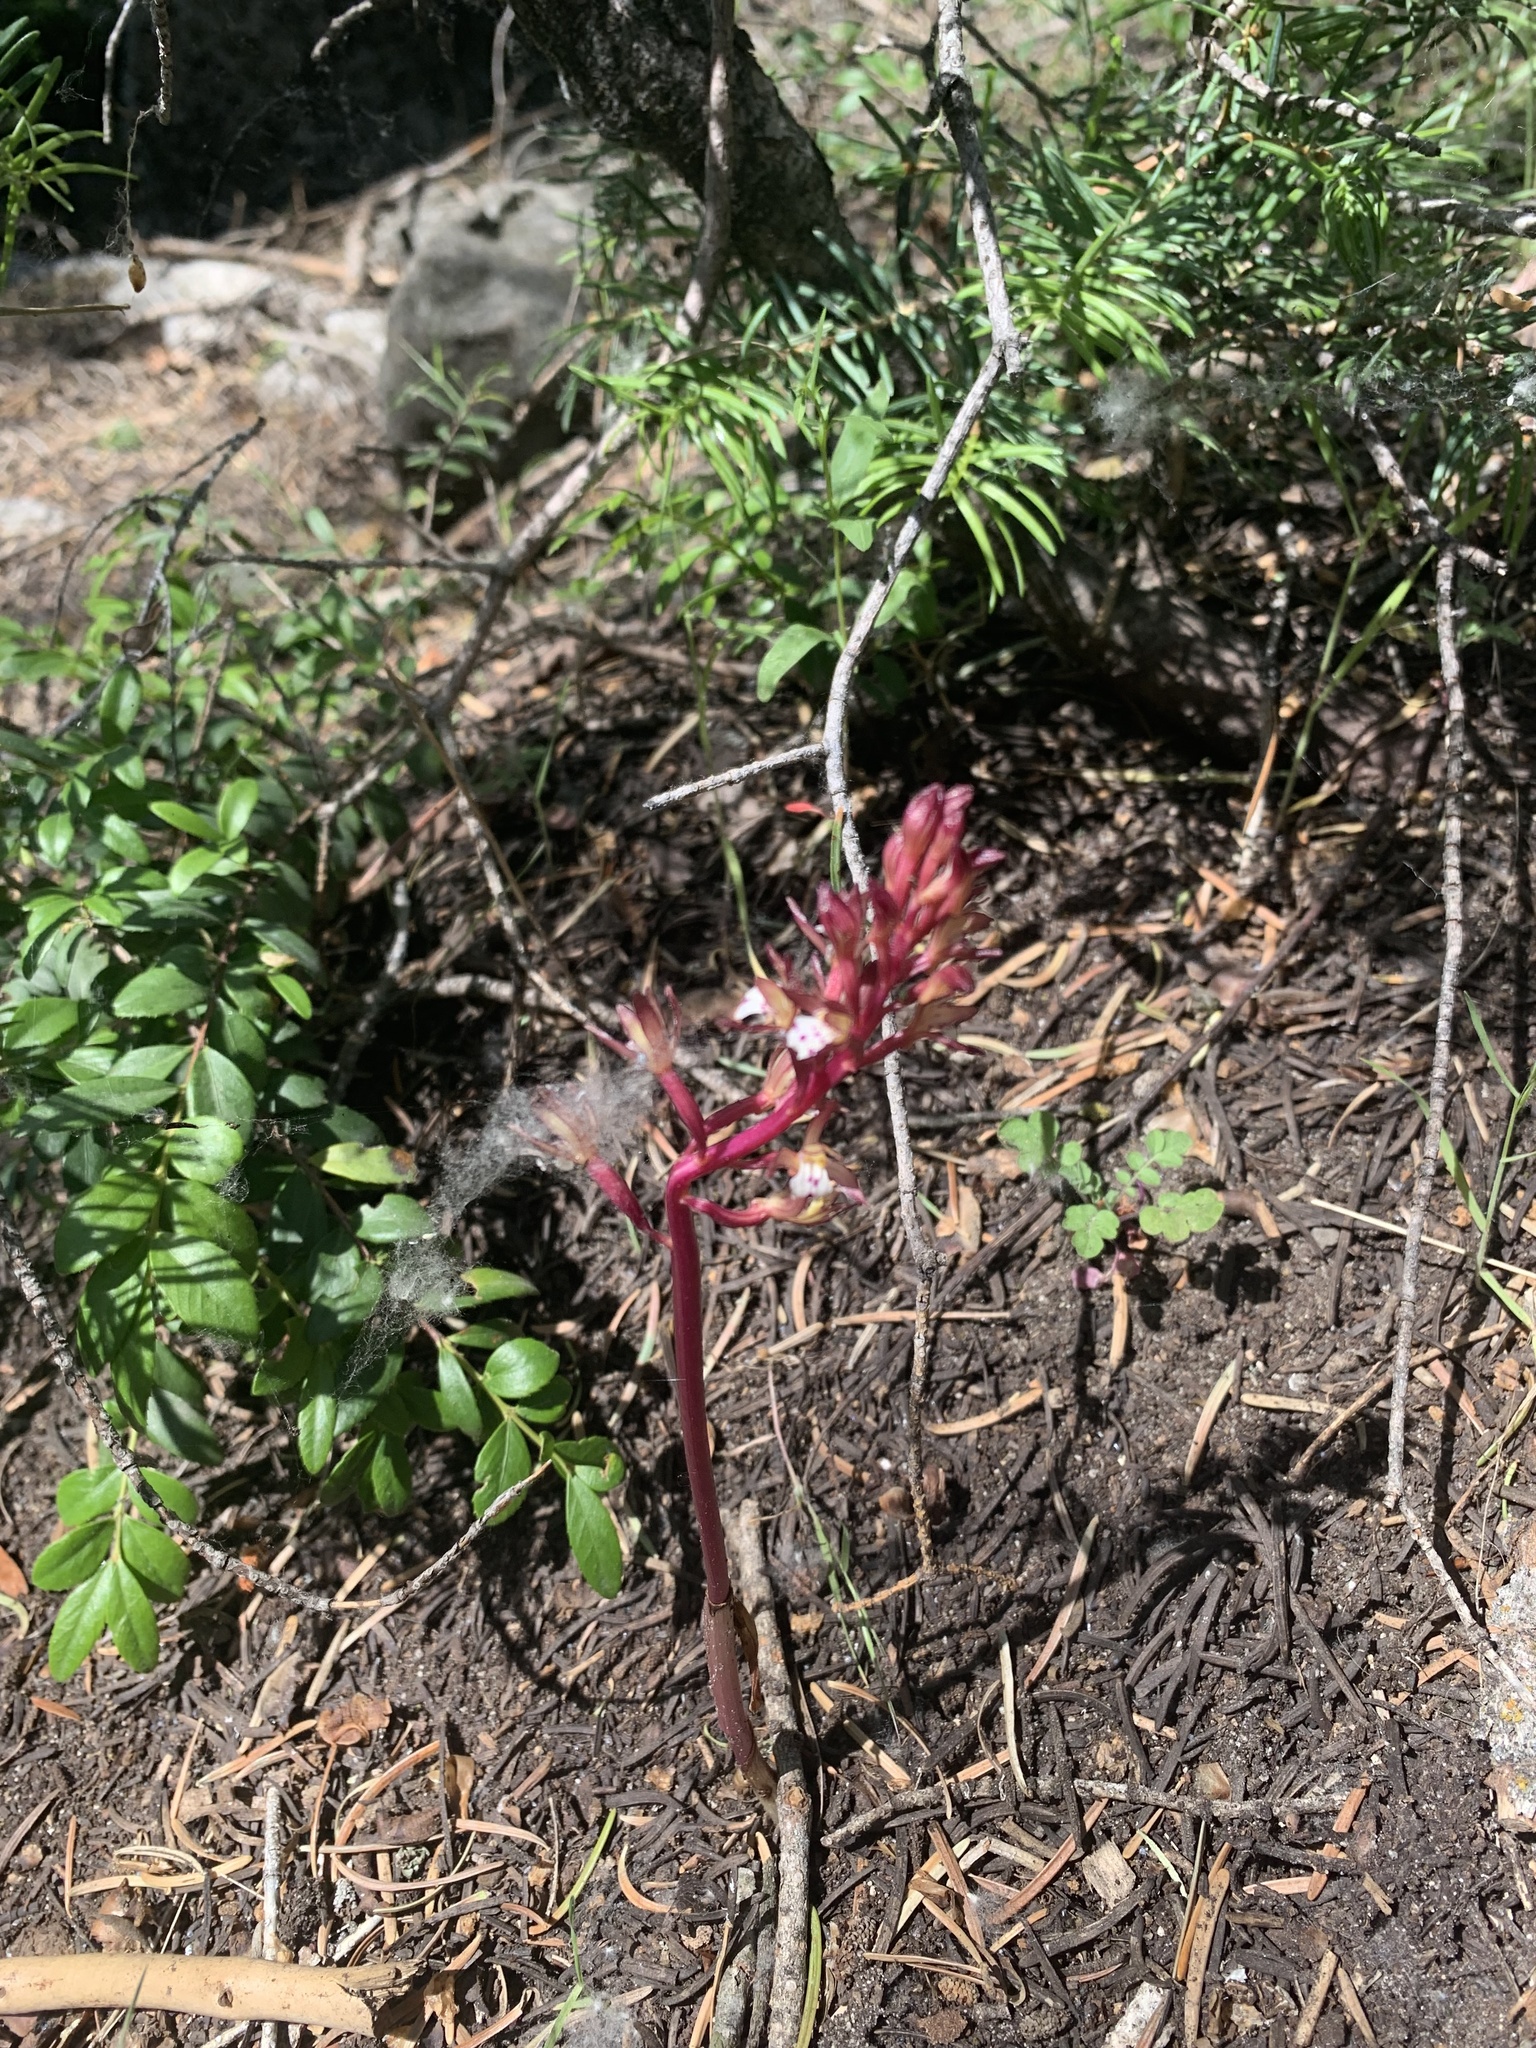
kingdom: Plantae
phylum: Tracheophyta
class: Liliopsida
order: Asparagales
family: Orchidaceae
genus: Corallorhiza
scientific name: Corallorhiza maculata
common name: Spotted coralroot
